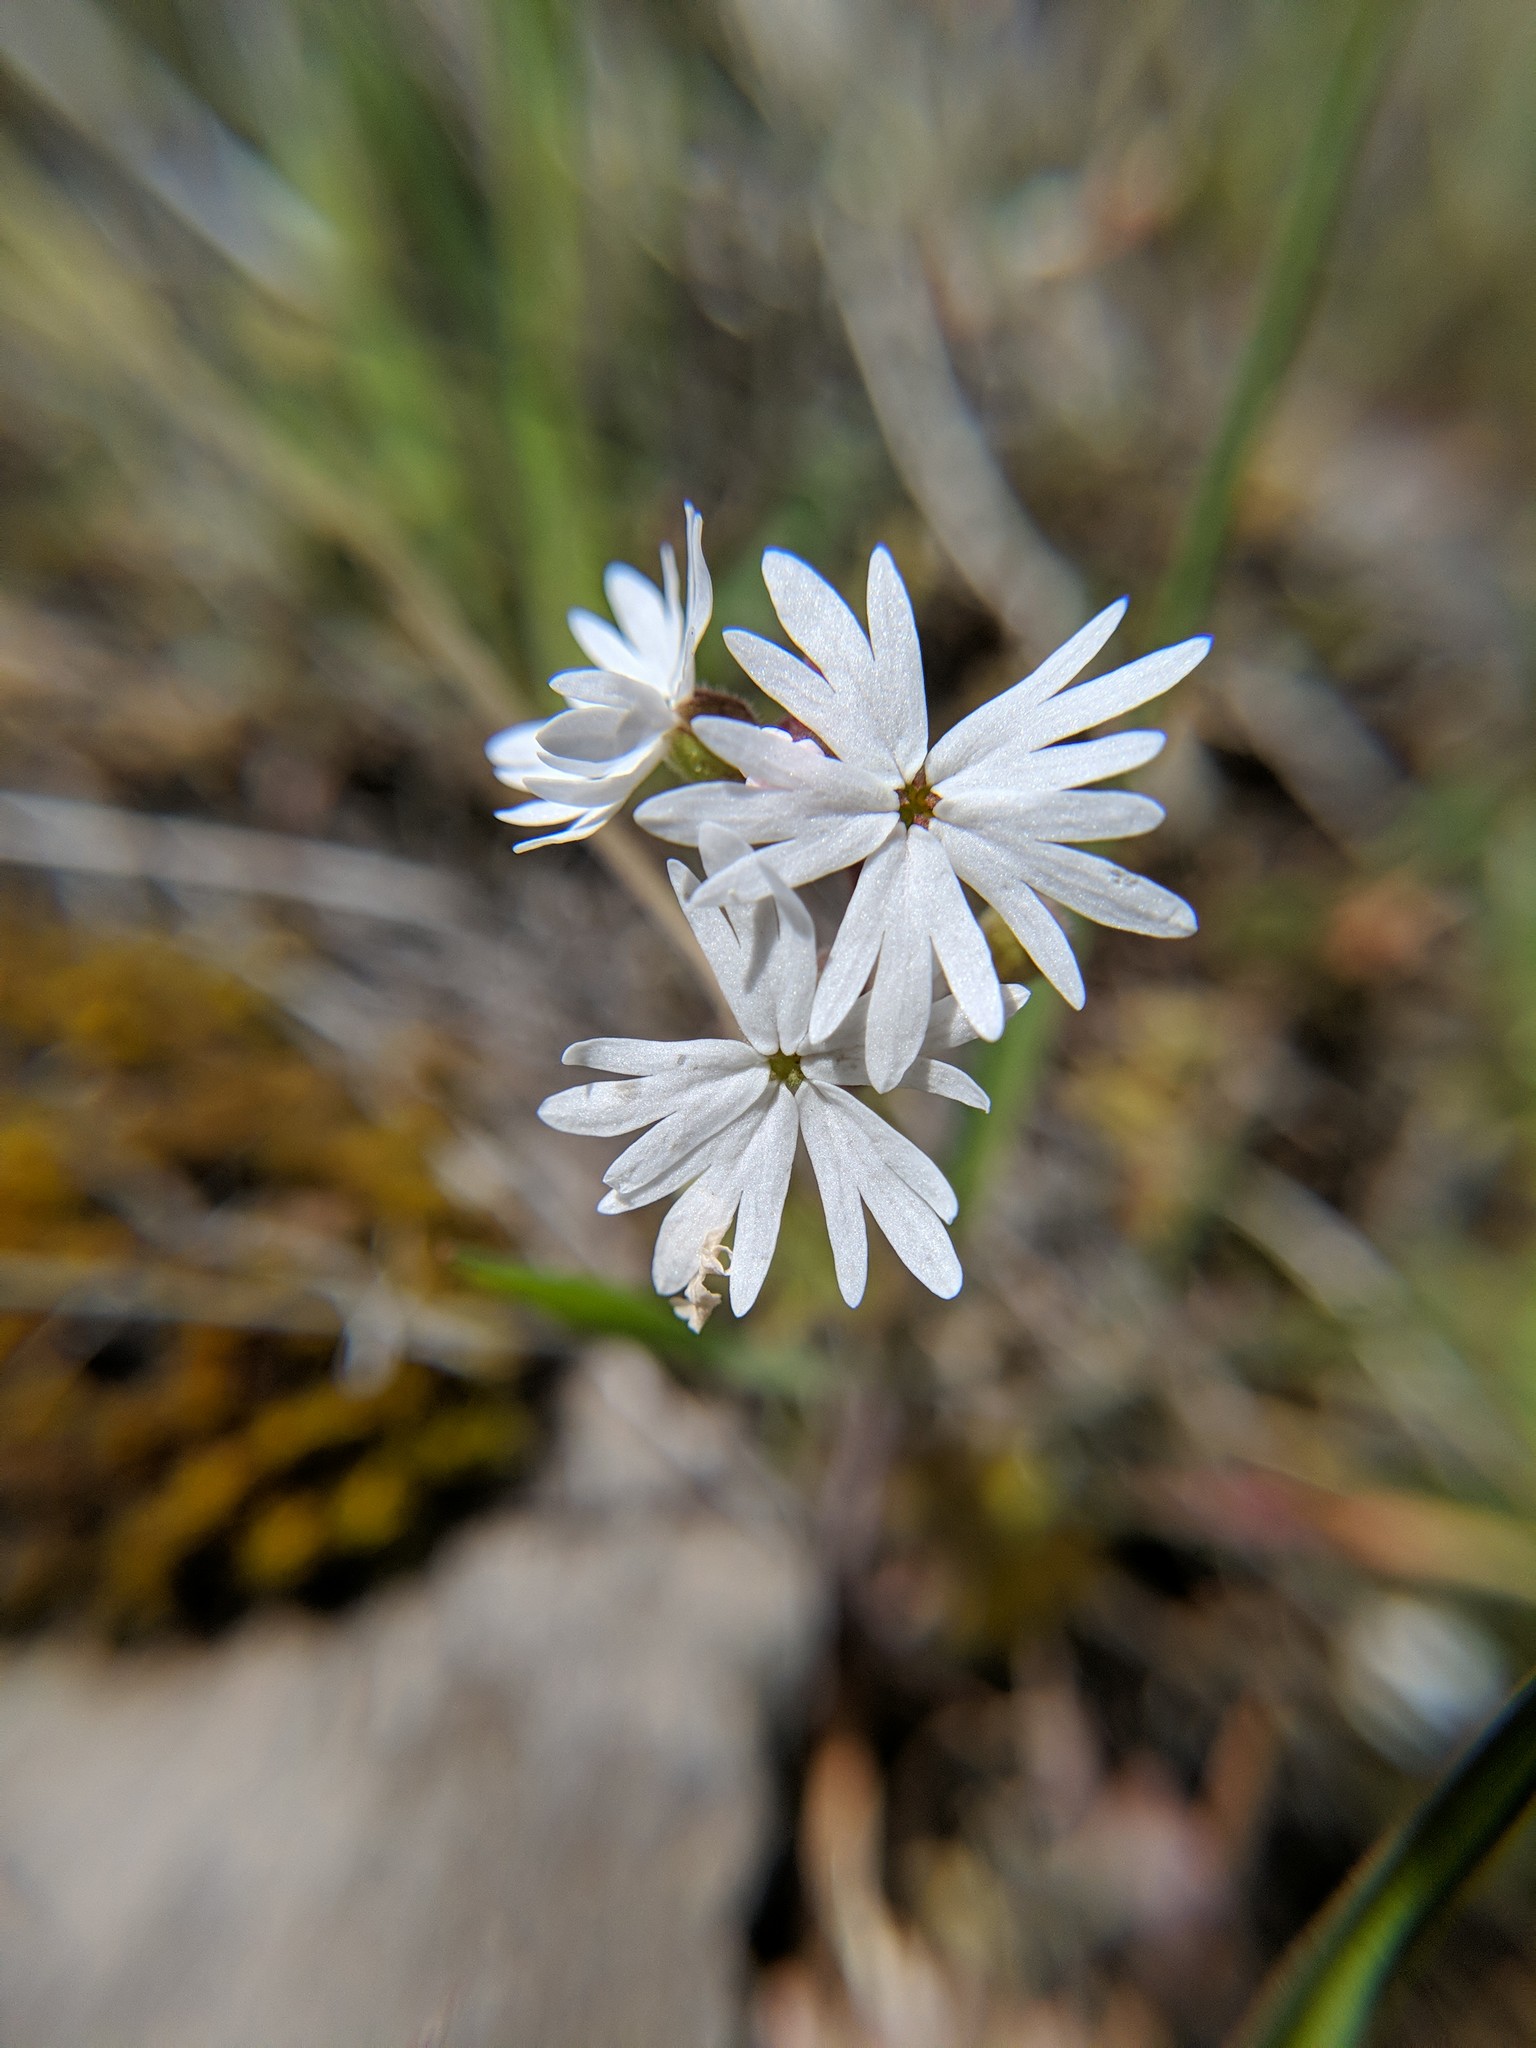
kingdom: Plantae
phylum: Tracheophyta
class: Magnoliopsida
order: Saxifragales
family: Saxifragaceae
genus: Lithophragma
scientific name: Lithophragma parviflorum
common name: Small-flowered fringe-cup
